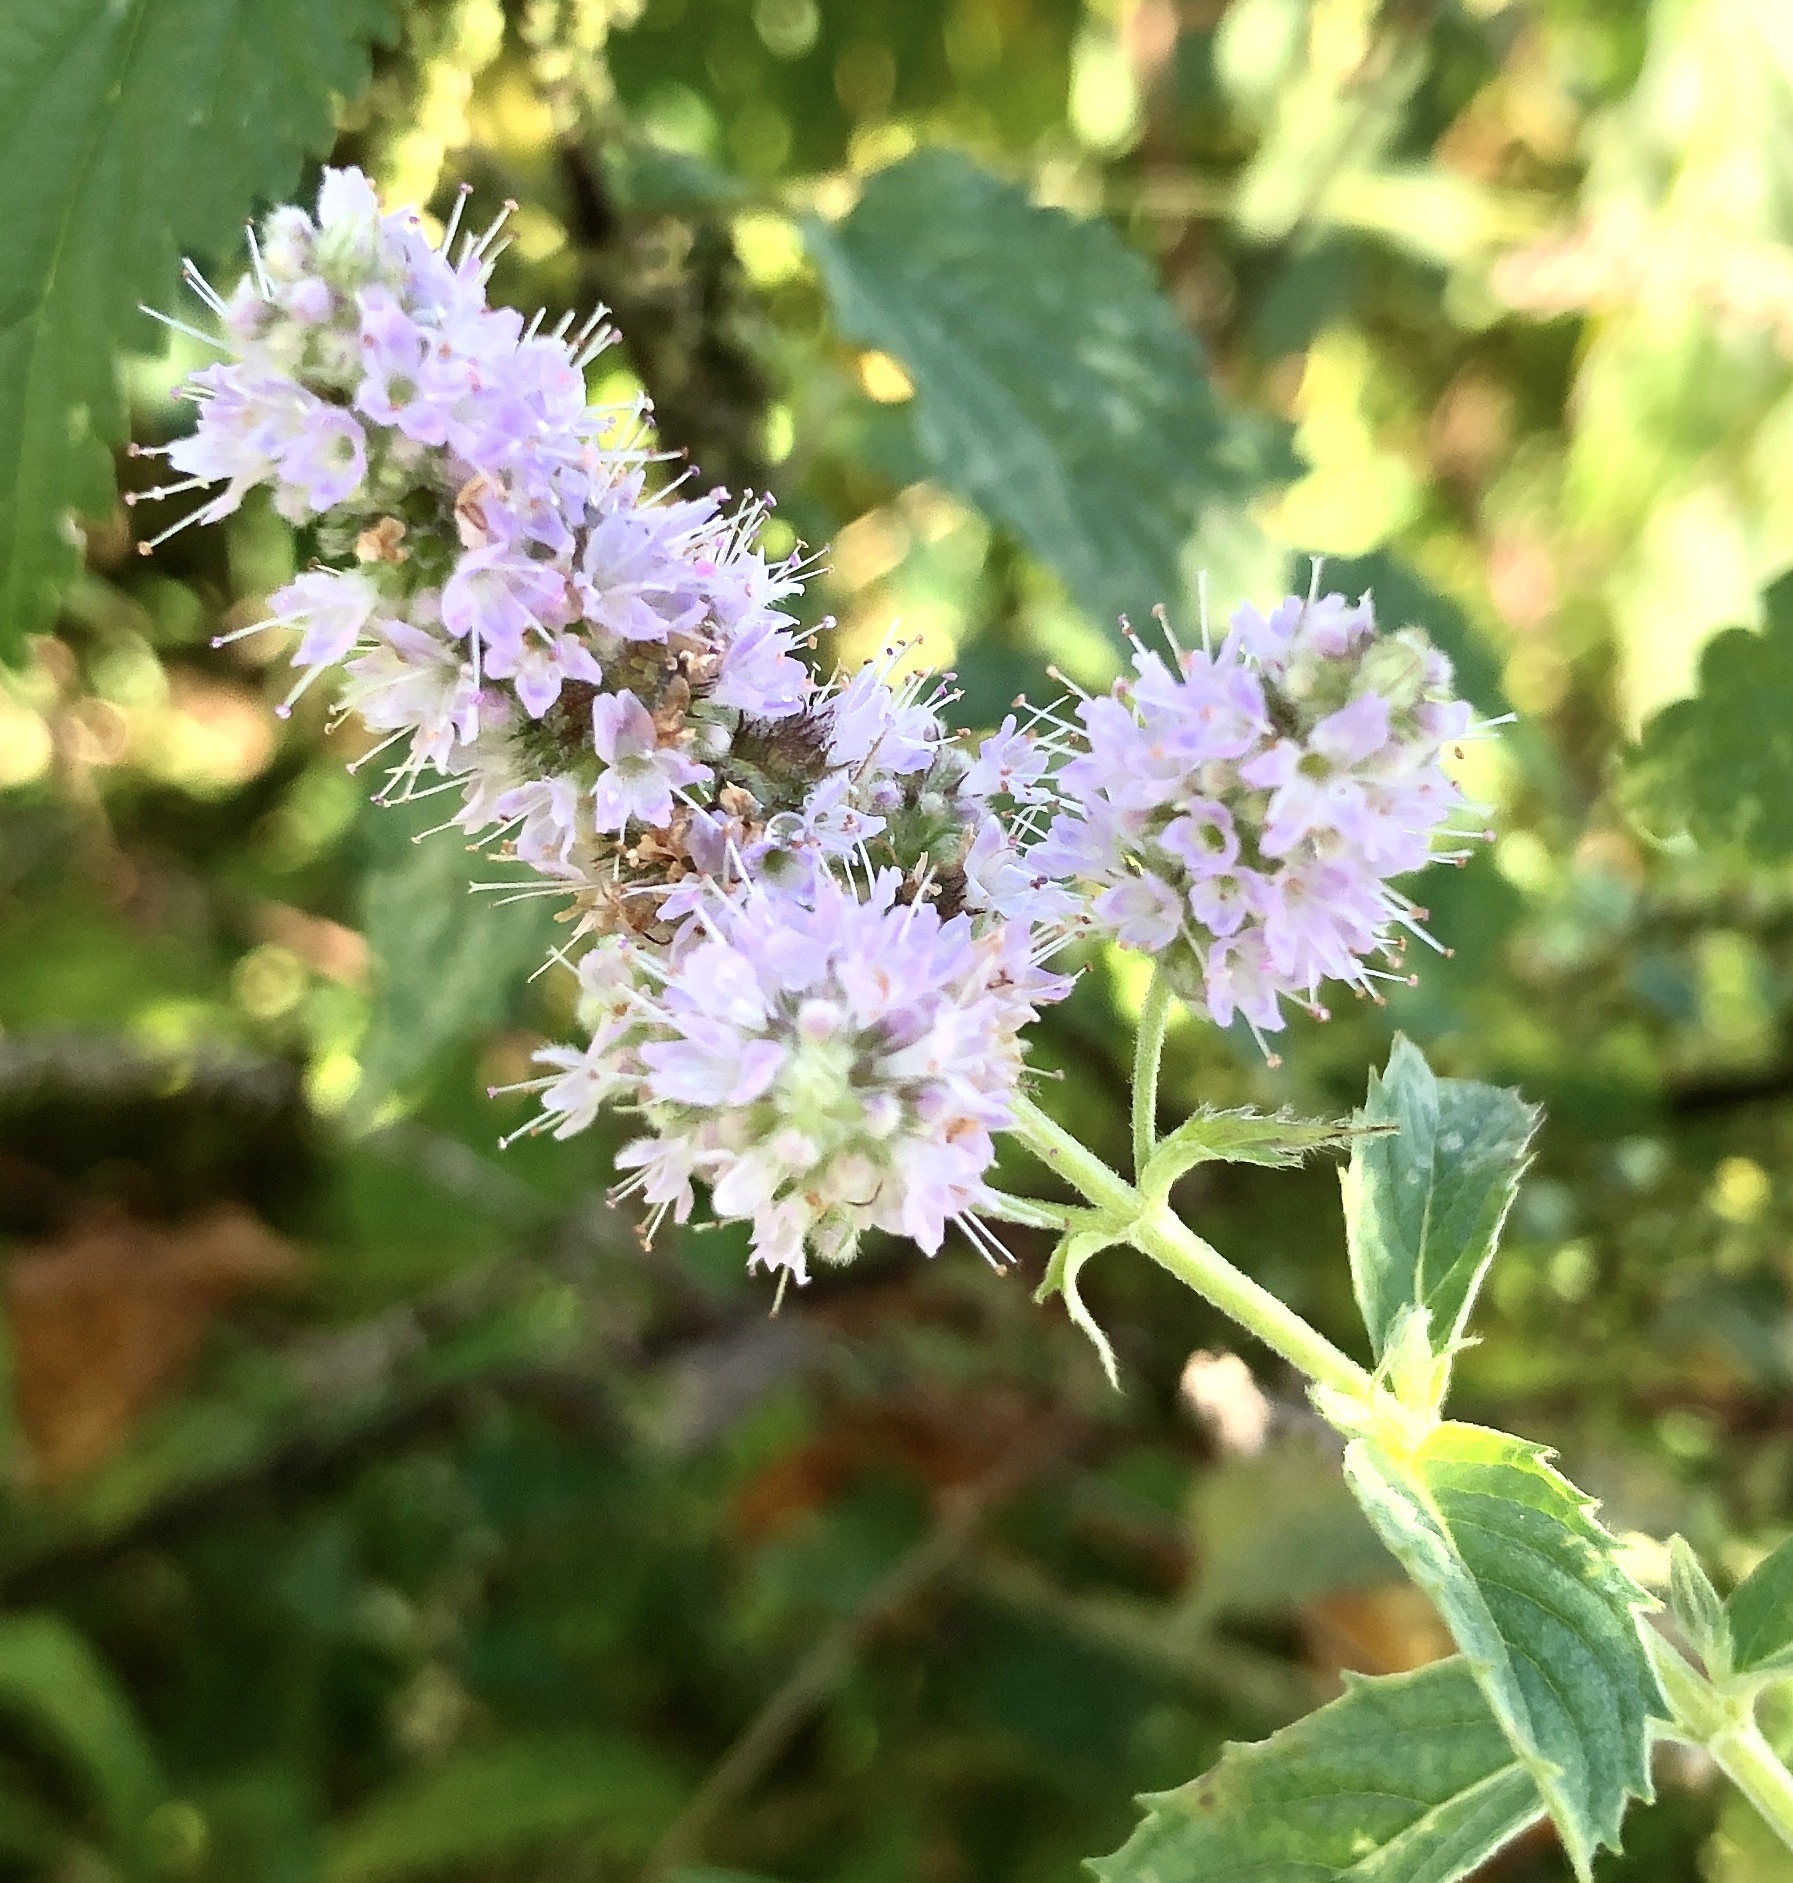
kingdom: Plantae
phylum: Tracheophyta
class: Magnoliopsida
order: Lamiales
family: Lamiaceae
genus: Mentha
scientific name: Mentha longifolia
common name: Horse mint
